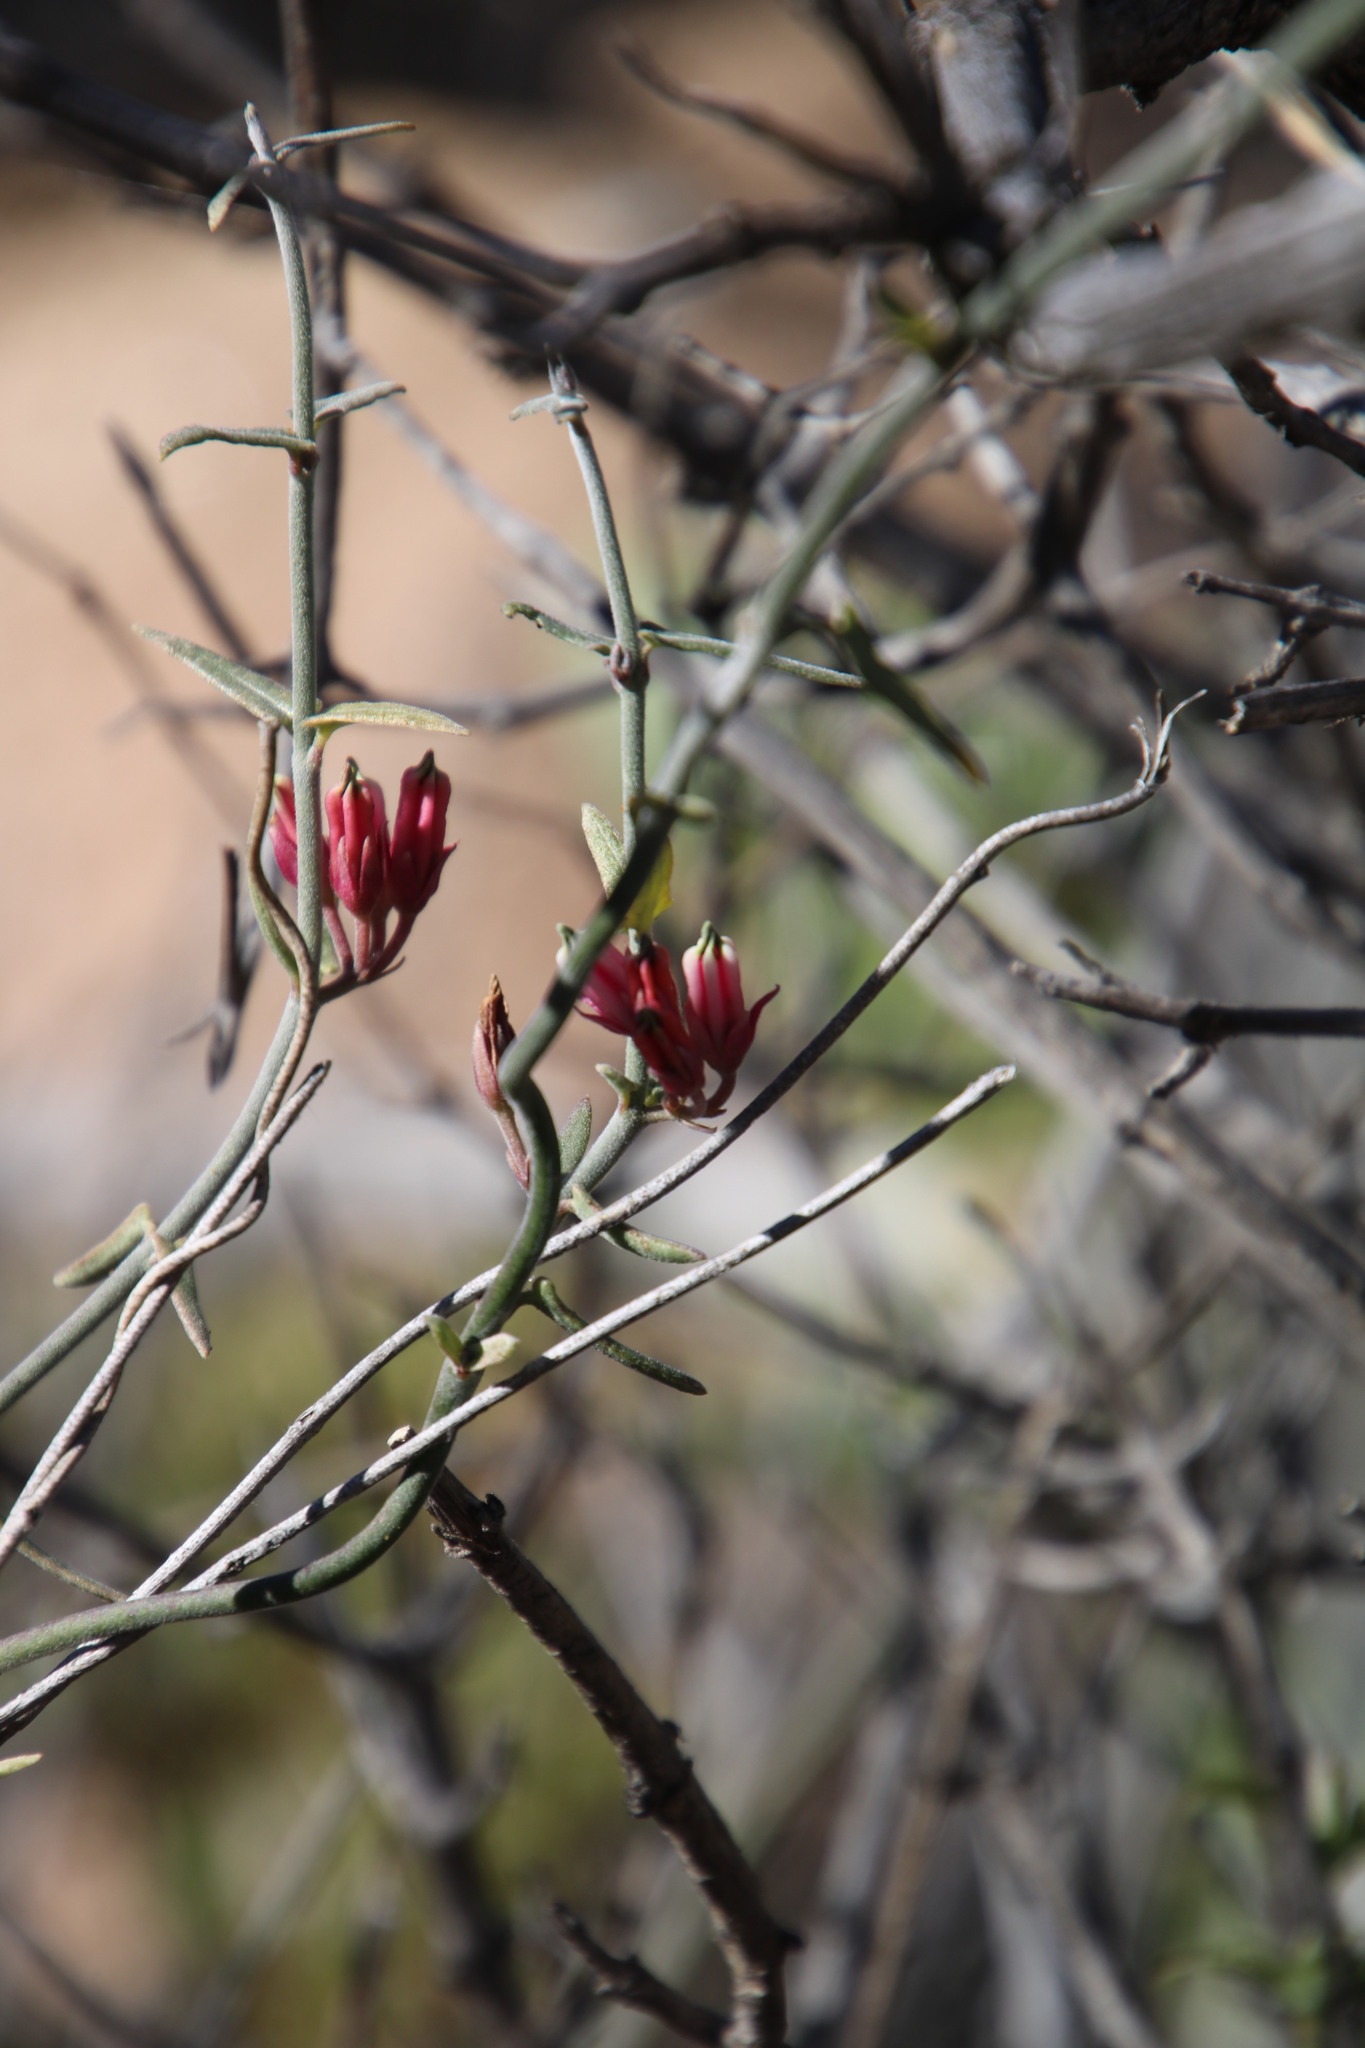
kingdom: Plantae
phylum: Tracheophyta
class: Magnoliopsida
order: Gentianales
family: Apocynaceae
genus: Microloma
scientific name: Microloma sagittatum
